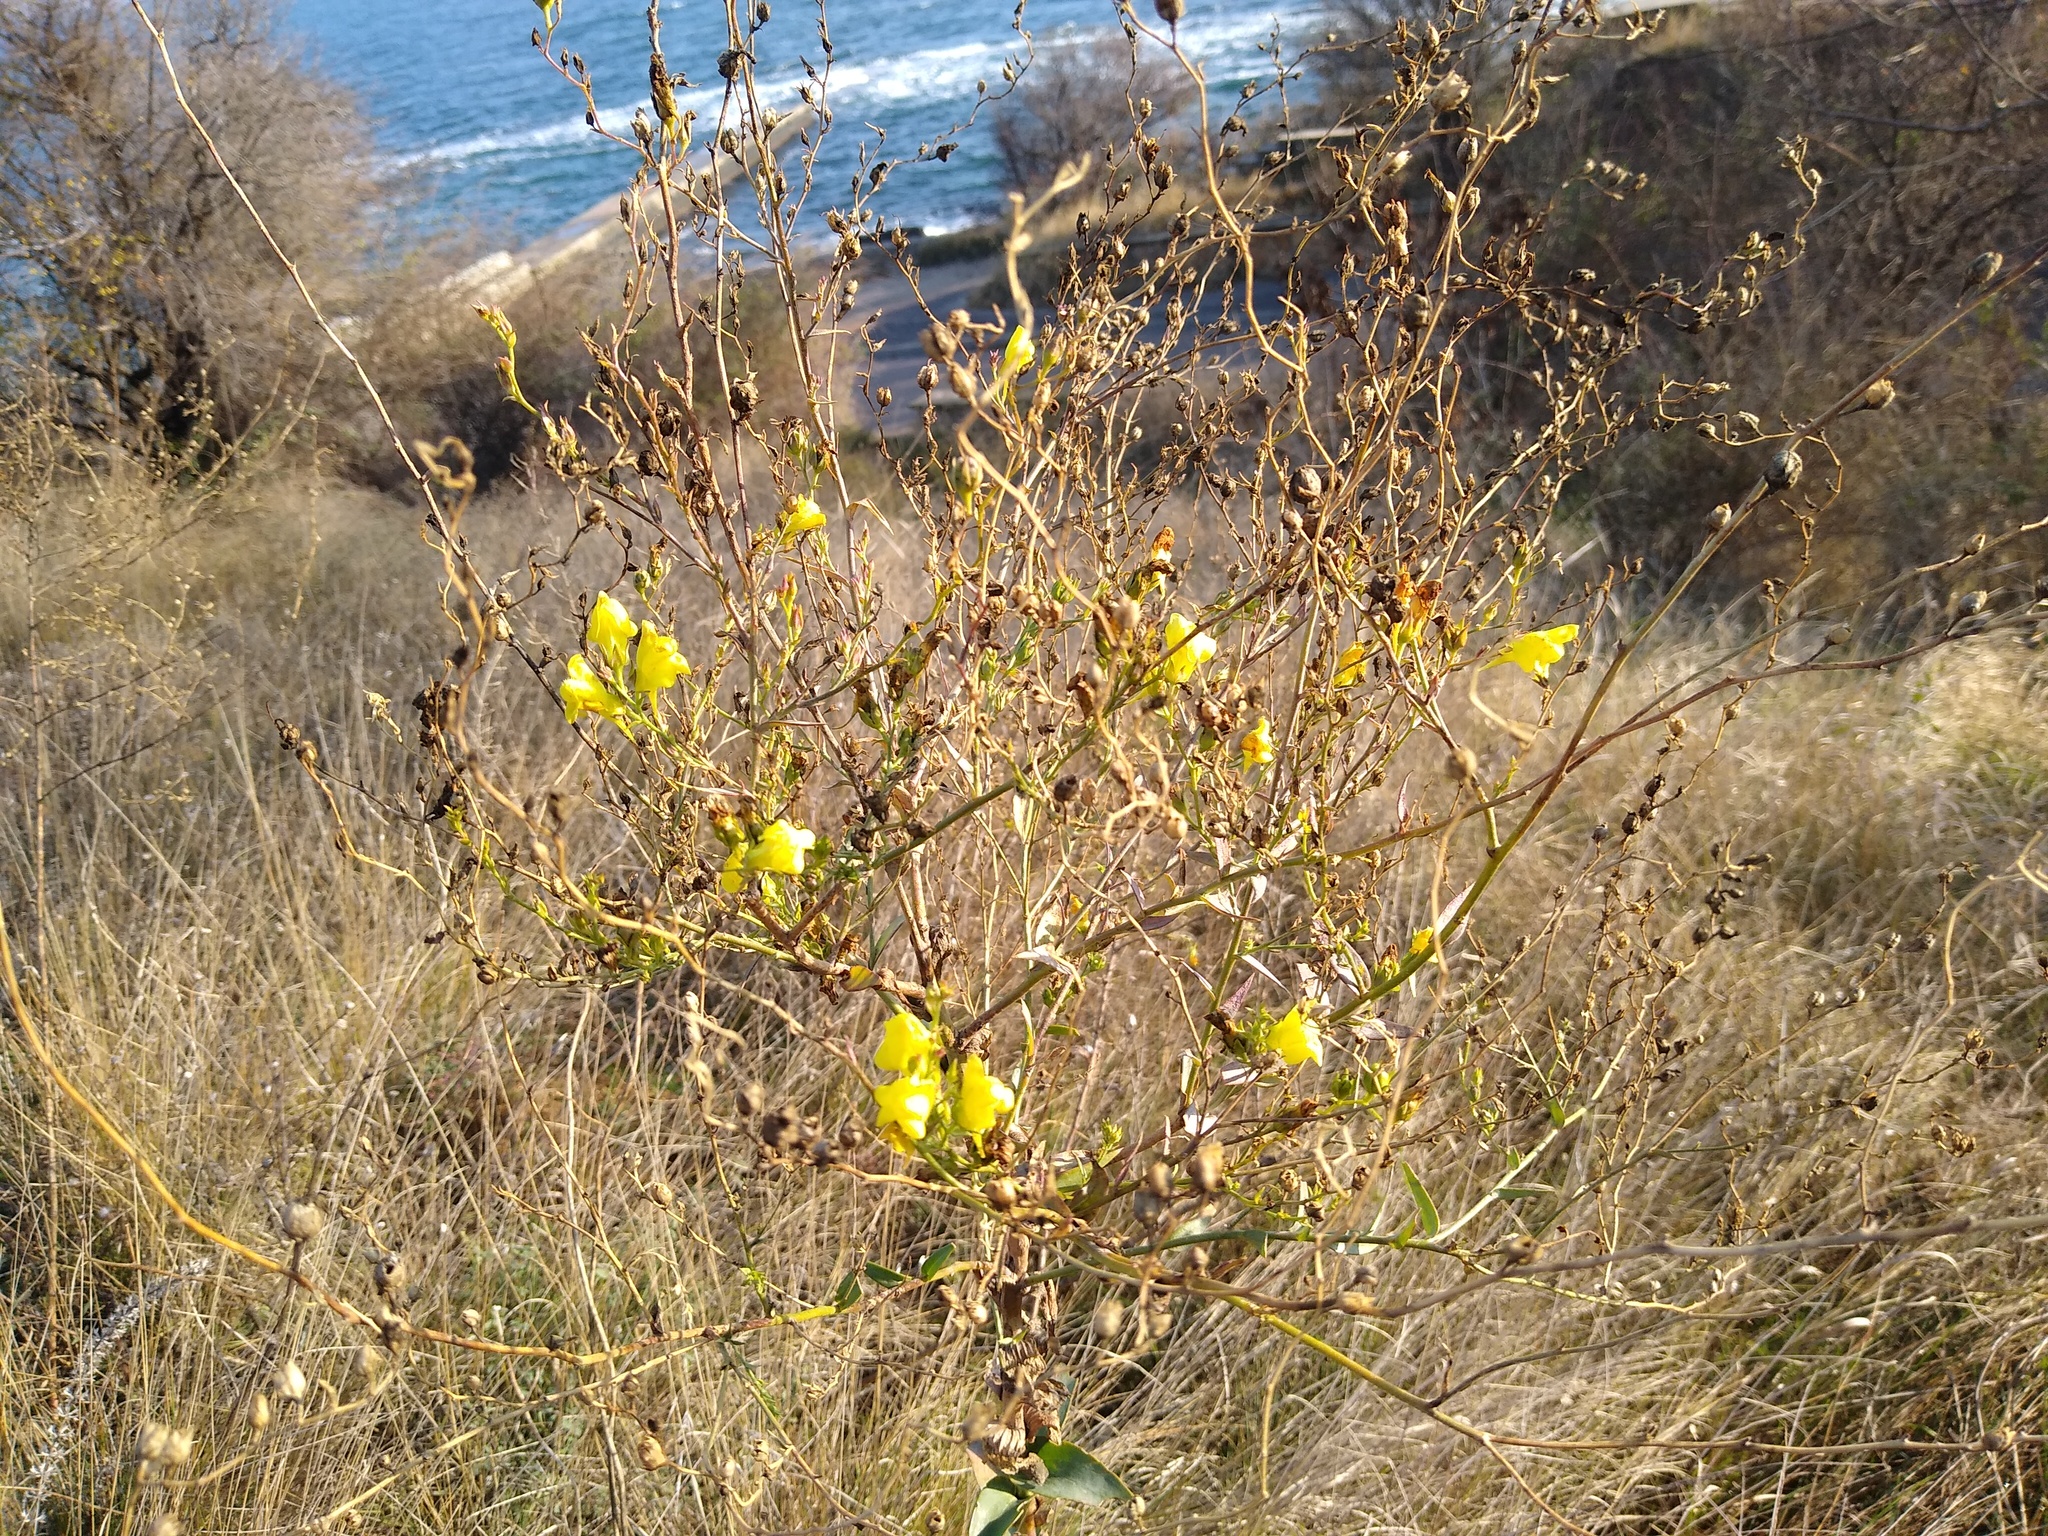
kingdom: Plantae
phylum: Tracheophyta
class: Magnoliopsida
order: Lamiales
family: Plantaginaceae
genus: Linaria
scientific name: Linaria vulgaris
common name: Butter and eggs
